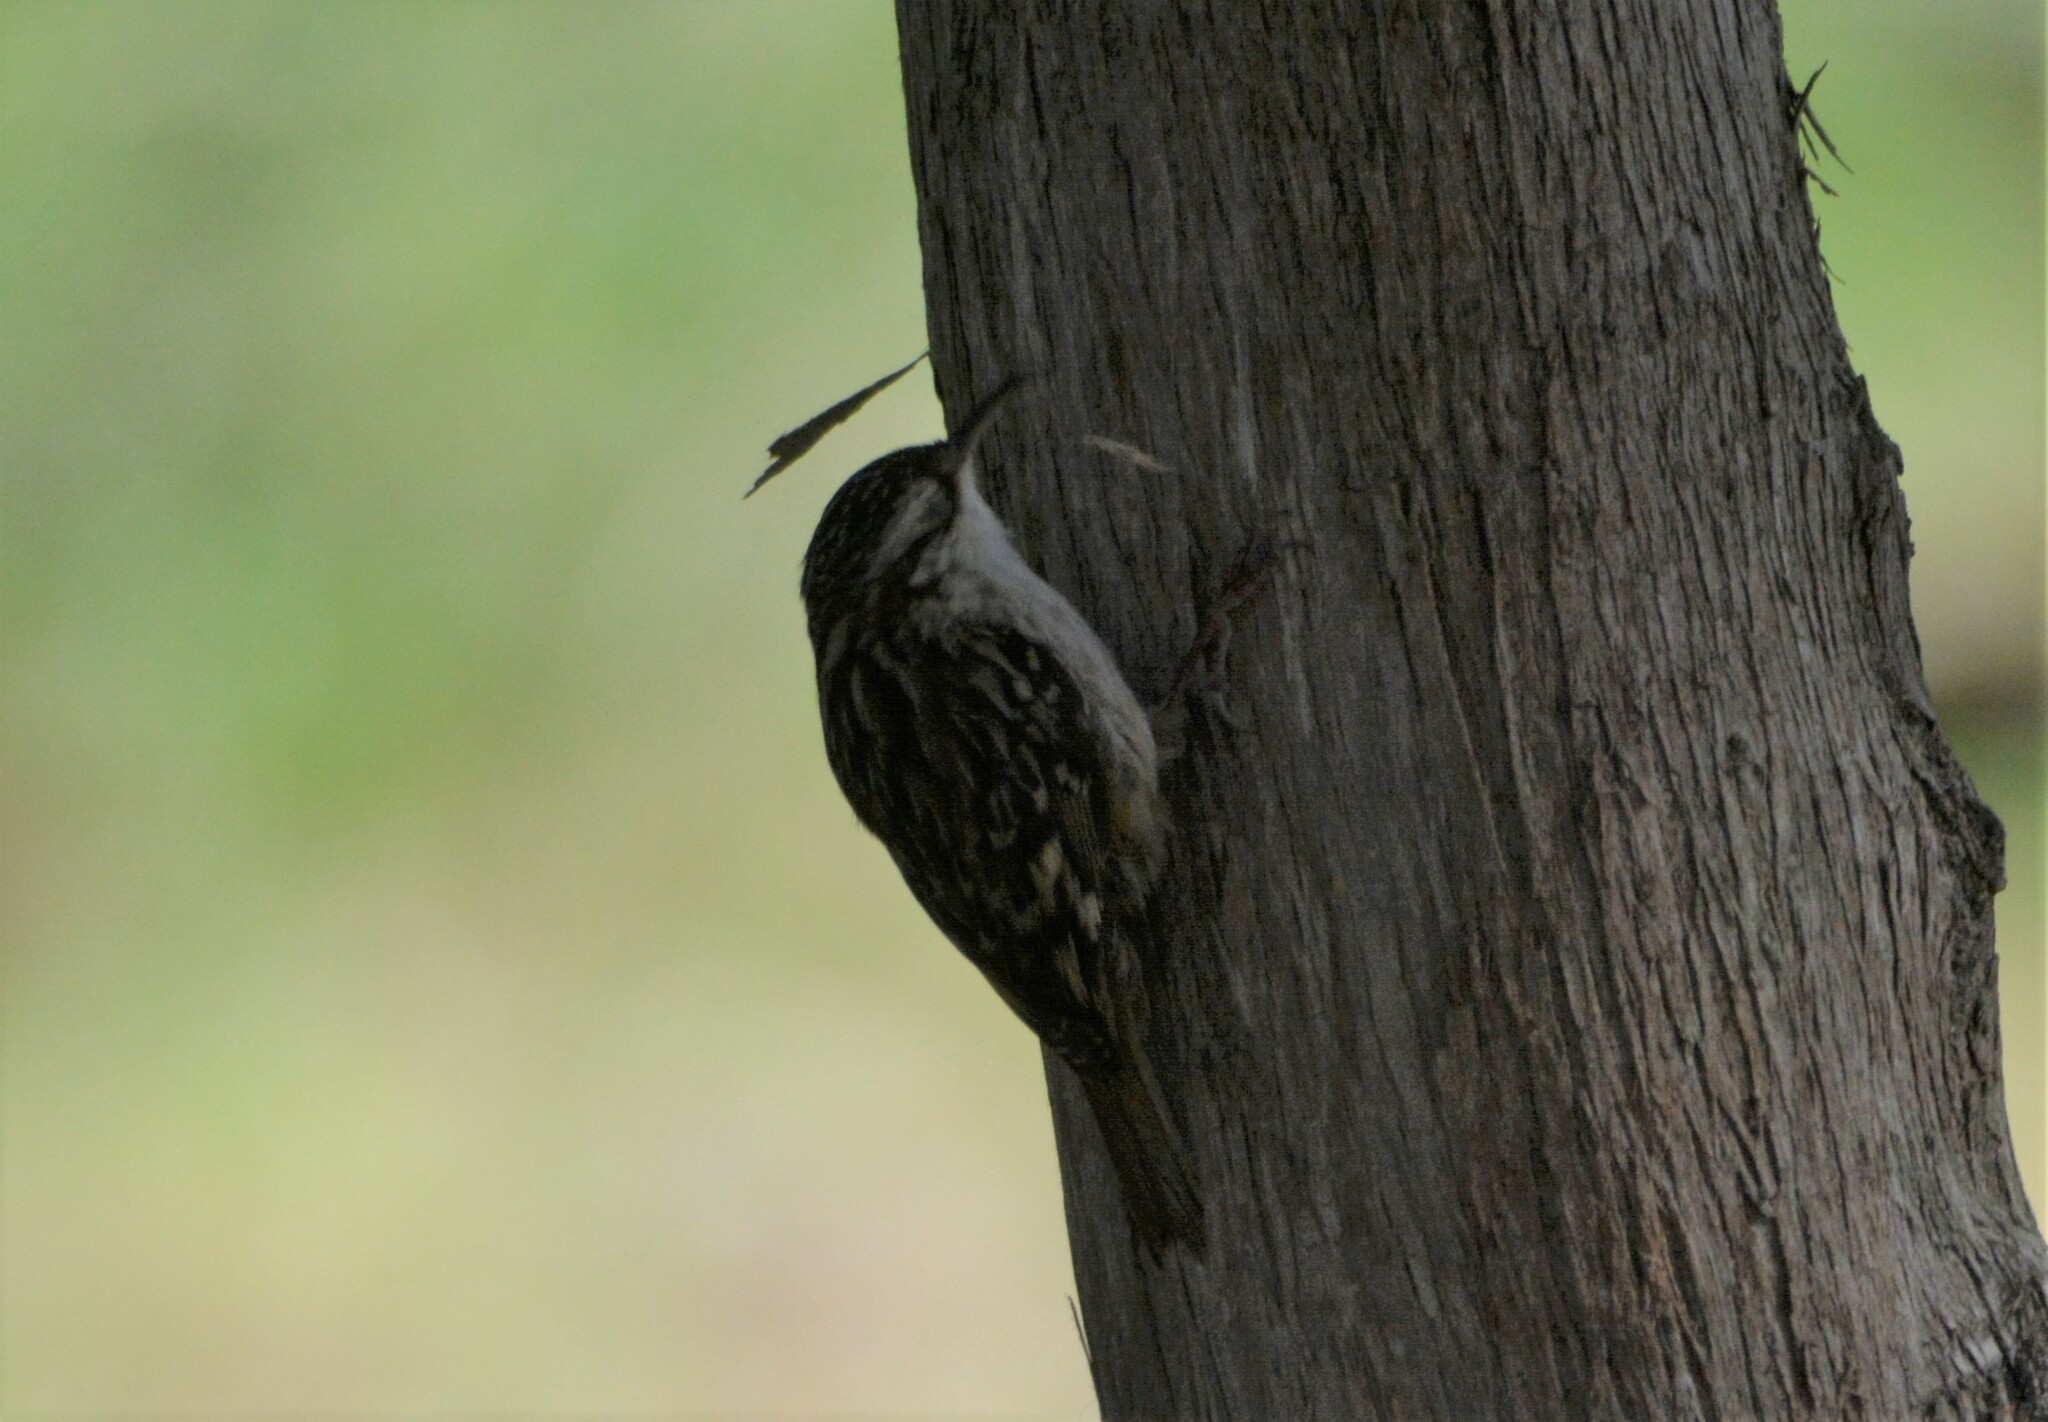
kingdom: Animalia
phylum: Chordata
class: Aves
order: Passeriformes
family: Certhiidae
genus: Certhia
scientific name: Certhia brachydactyla
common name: Short-toed treecreeper
